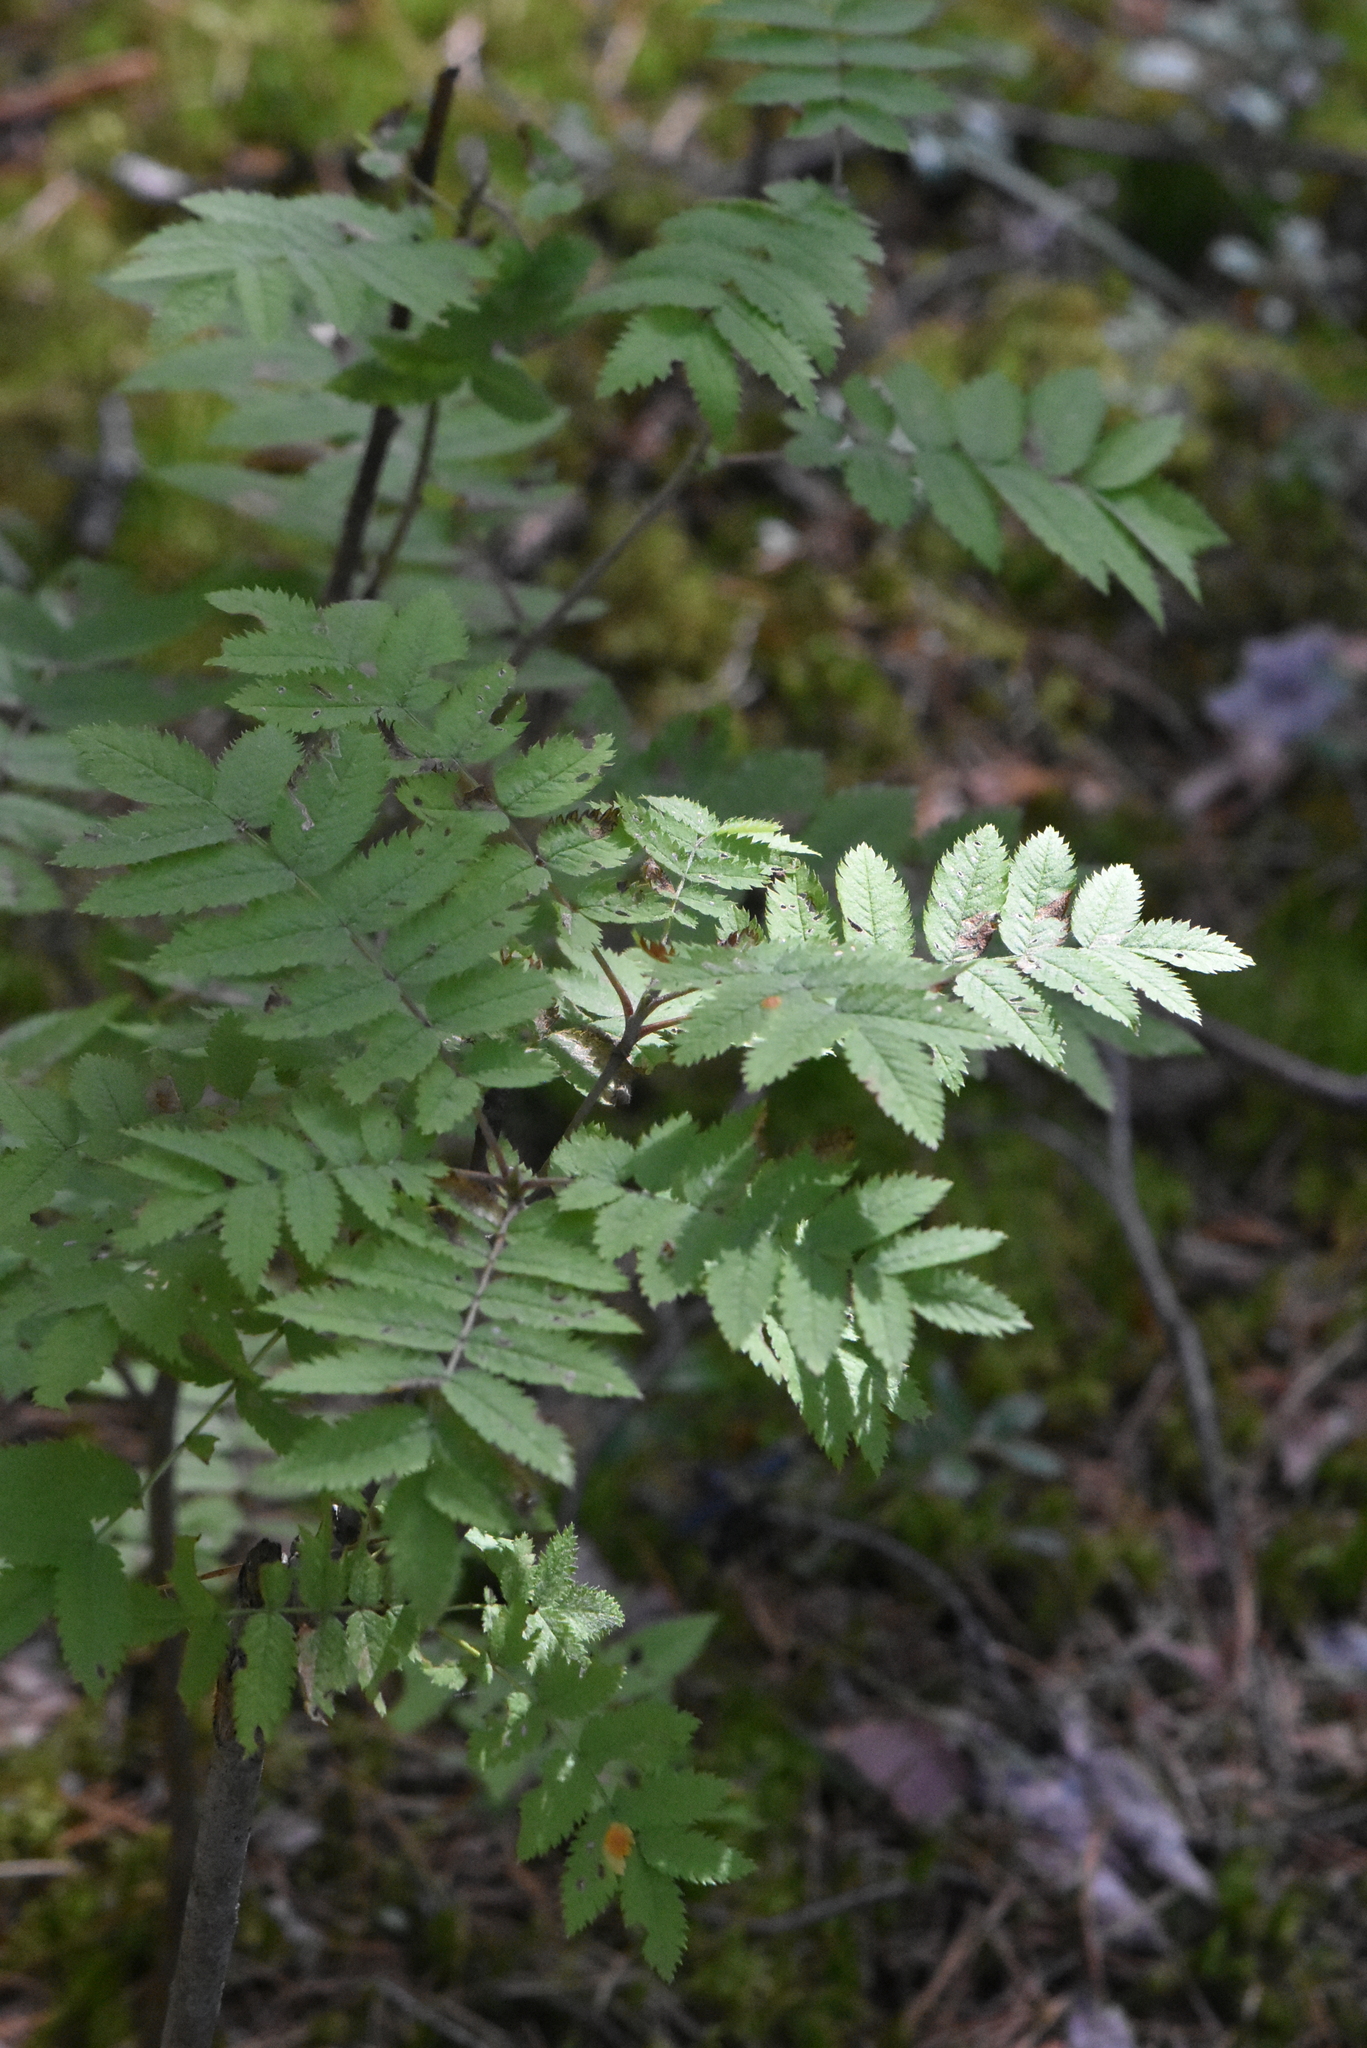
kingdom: Plantae
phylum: Tracheophyta
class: Magnoliopsida
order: Rosales
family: Rosaceae
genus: Sorbus
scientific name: Sorbus aucuparia
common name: Rowan
